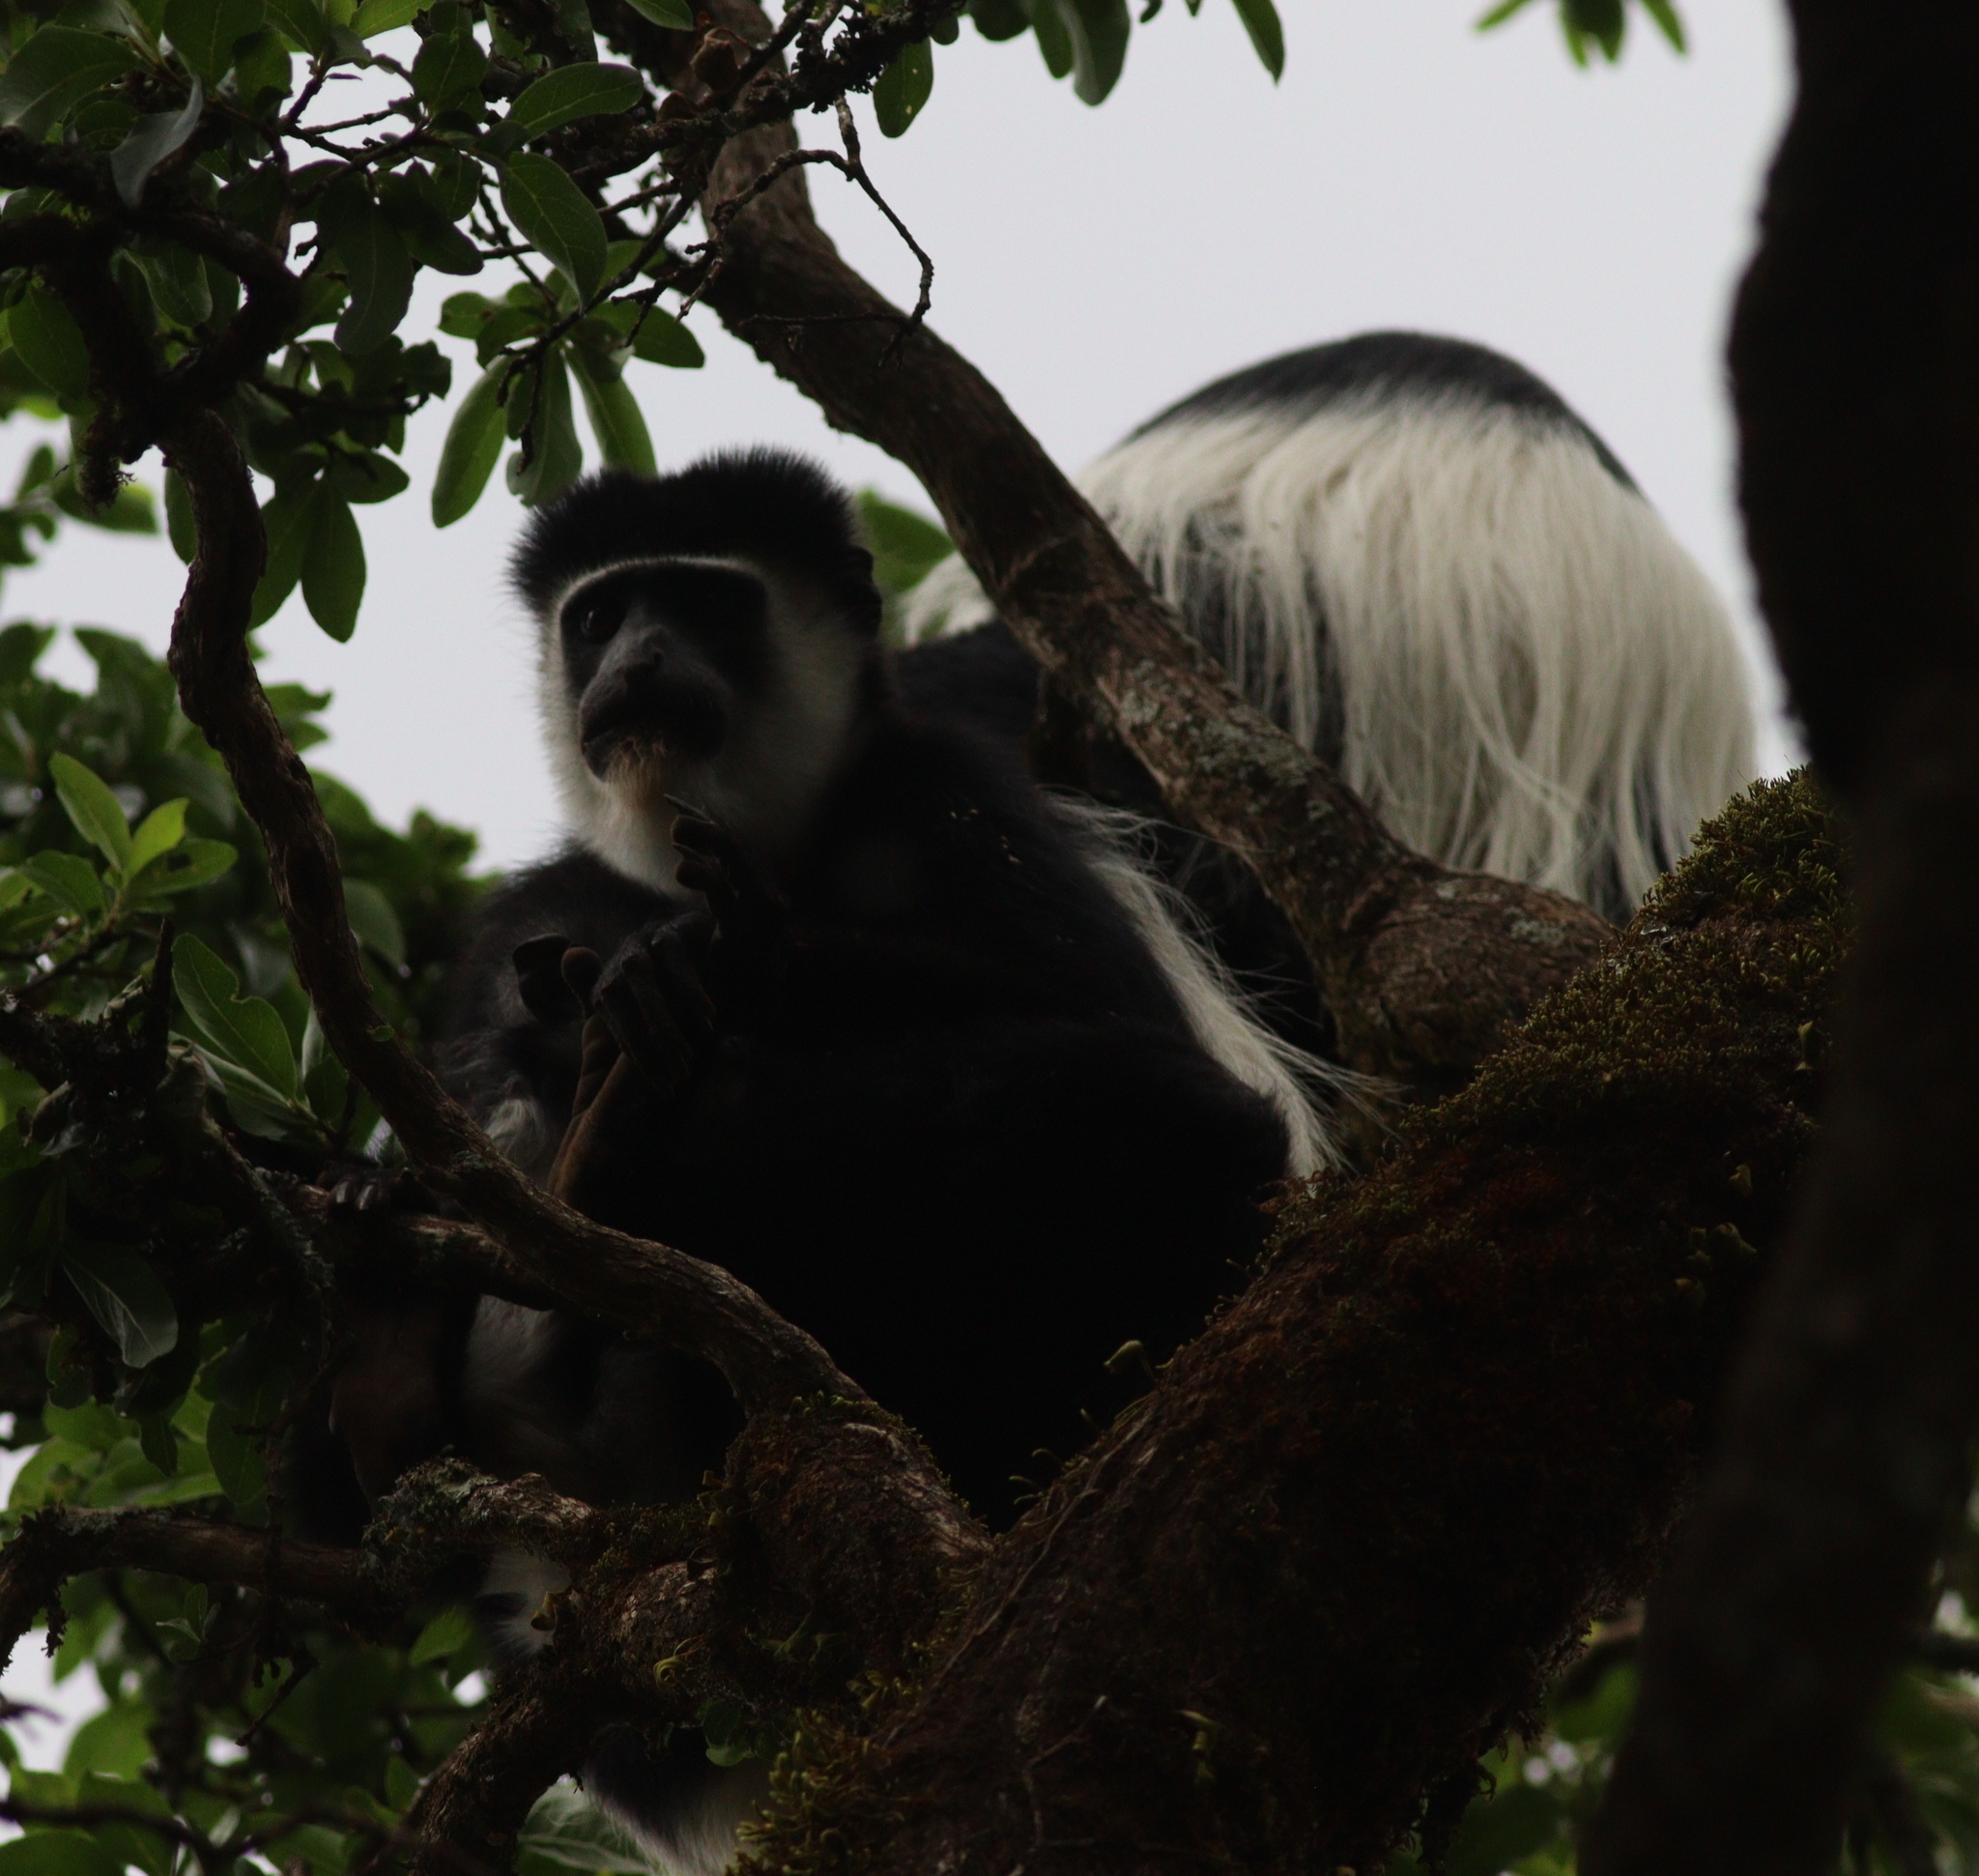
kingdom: Animalia
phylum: Chordata
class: Mammalia
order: Primates
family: Cercopithecidae
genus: Colobus
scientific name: Colobus guereza
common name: Mantled guereza
